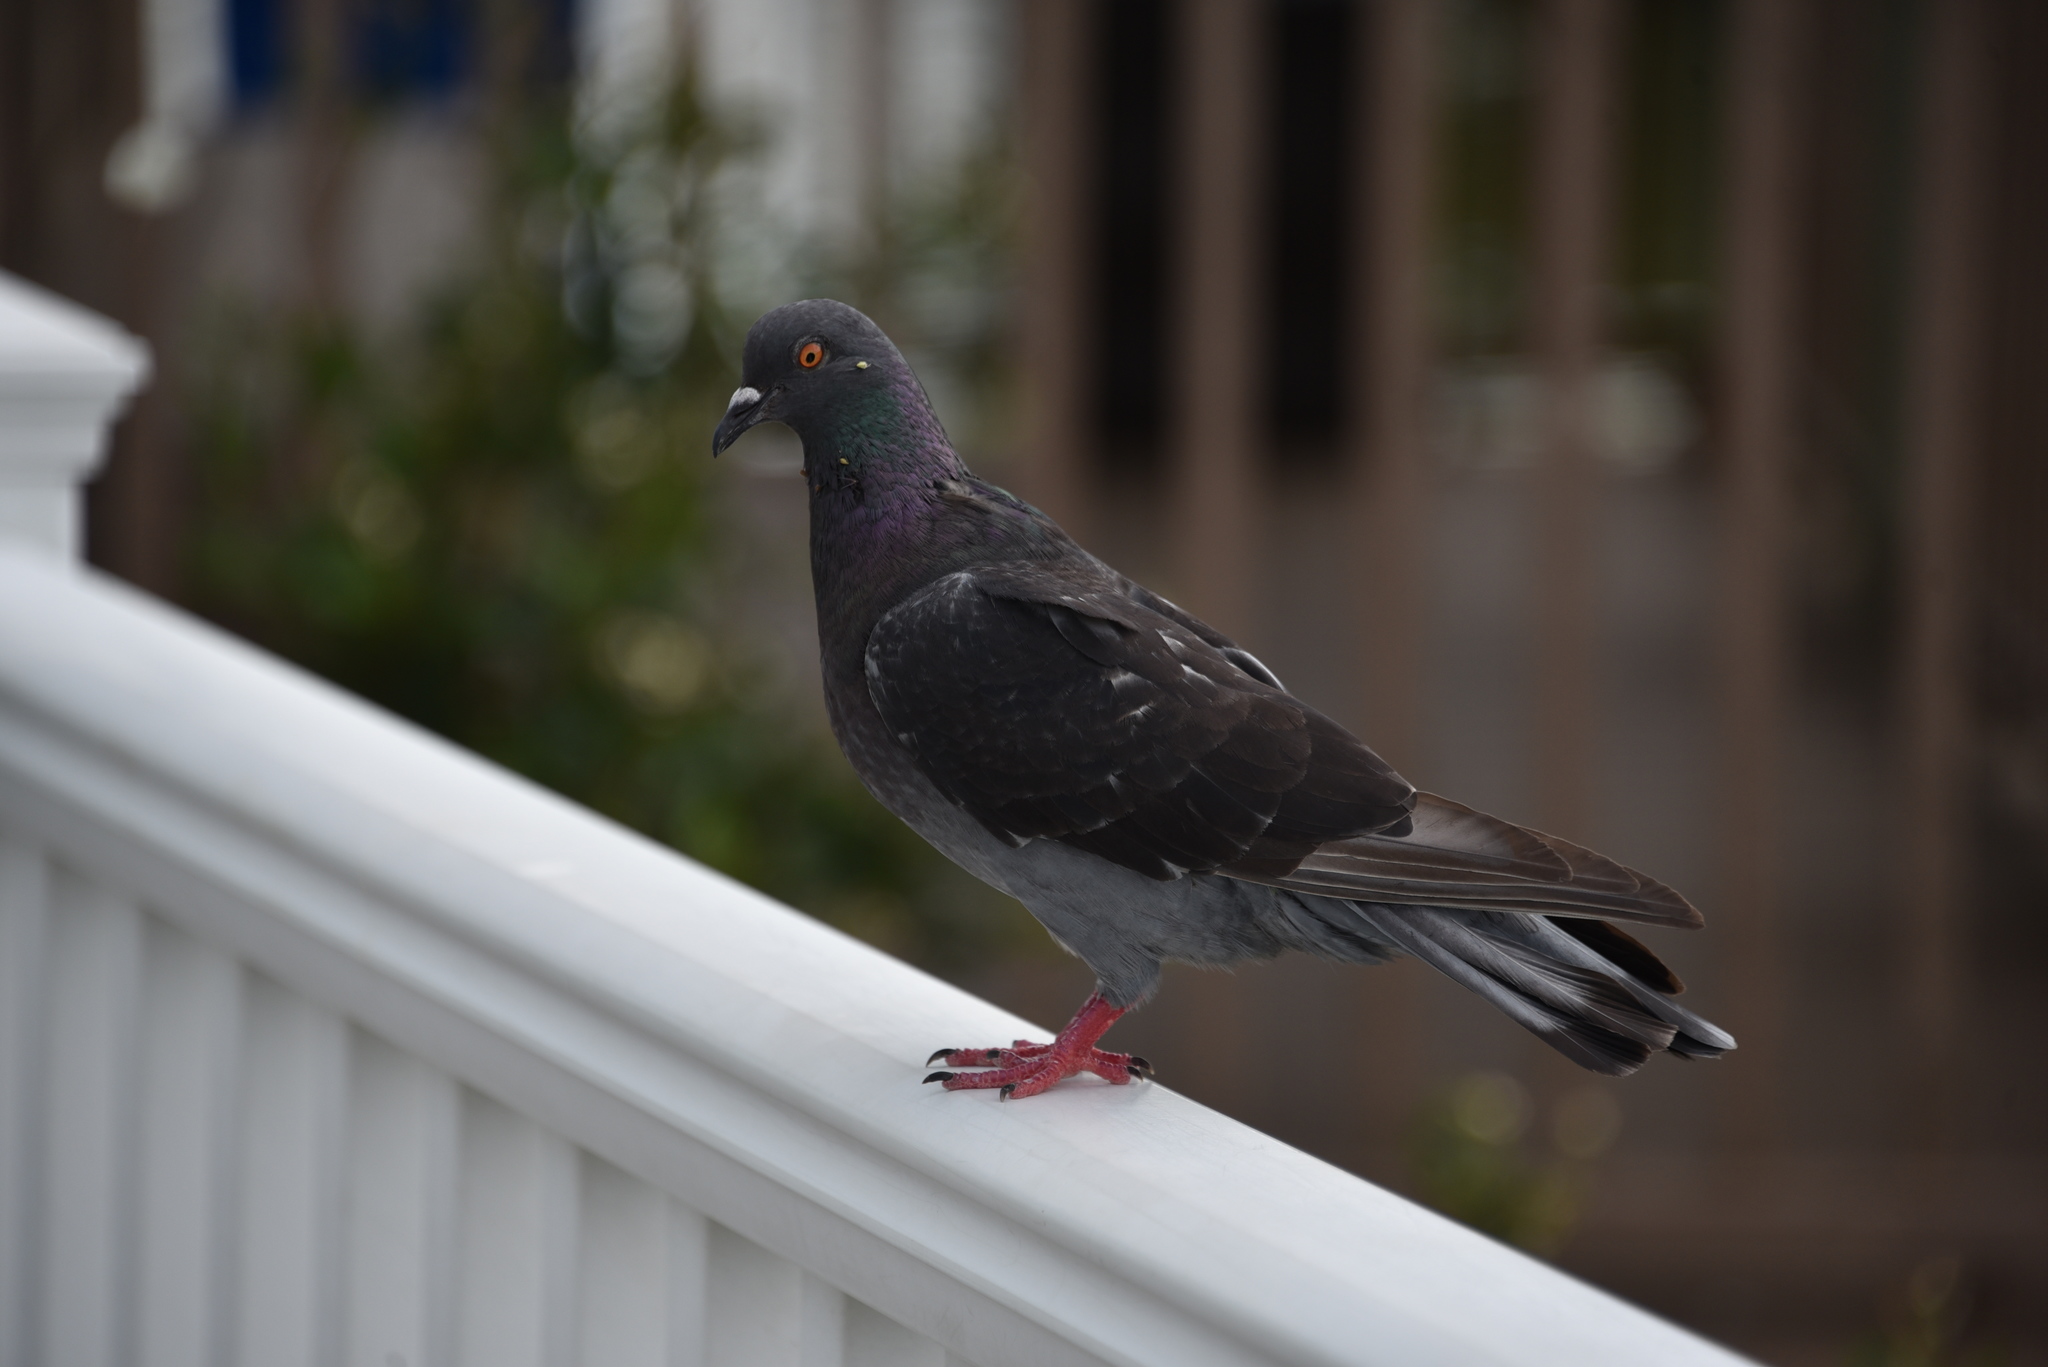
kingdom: Animalia
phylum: Chordata
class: Aves
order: Columbiformes
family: Columbidae
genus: Columba
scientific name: Columba livia
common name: Rock pigeon
